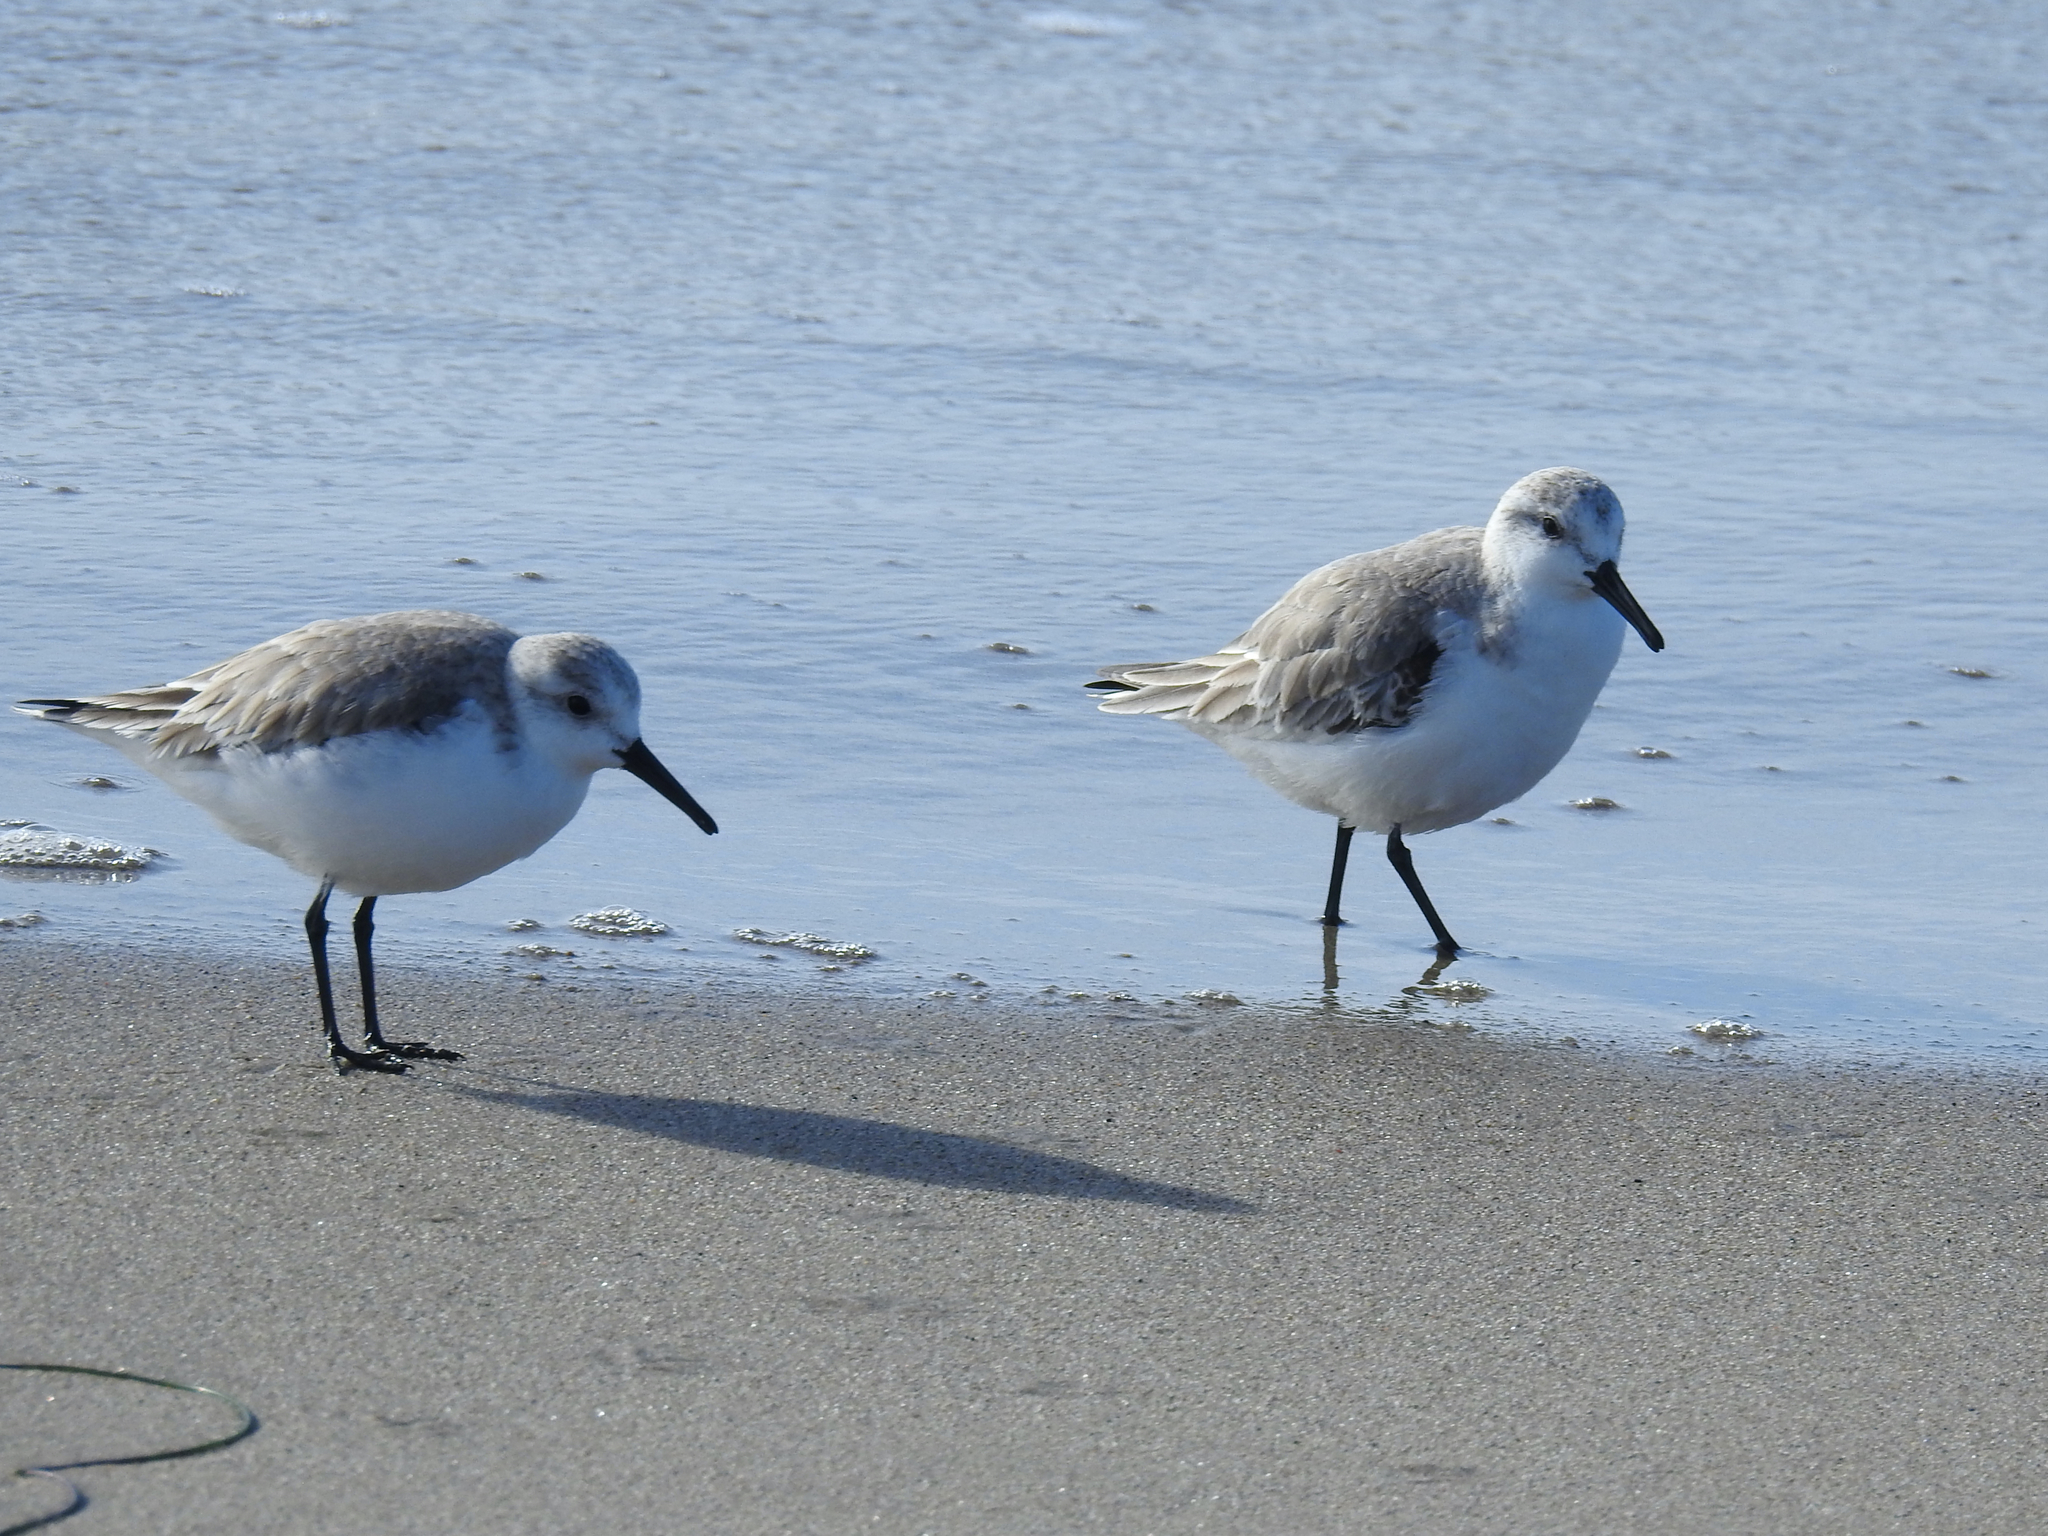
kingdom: Animalia
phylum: Chordata
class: Aves
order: Charadriiformes
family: Scolopacidae
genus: Calidris
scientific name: Calidris alba
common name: Sanderling
